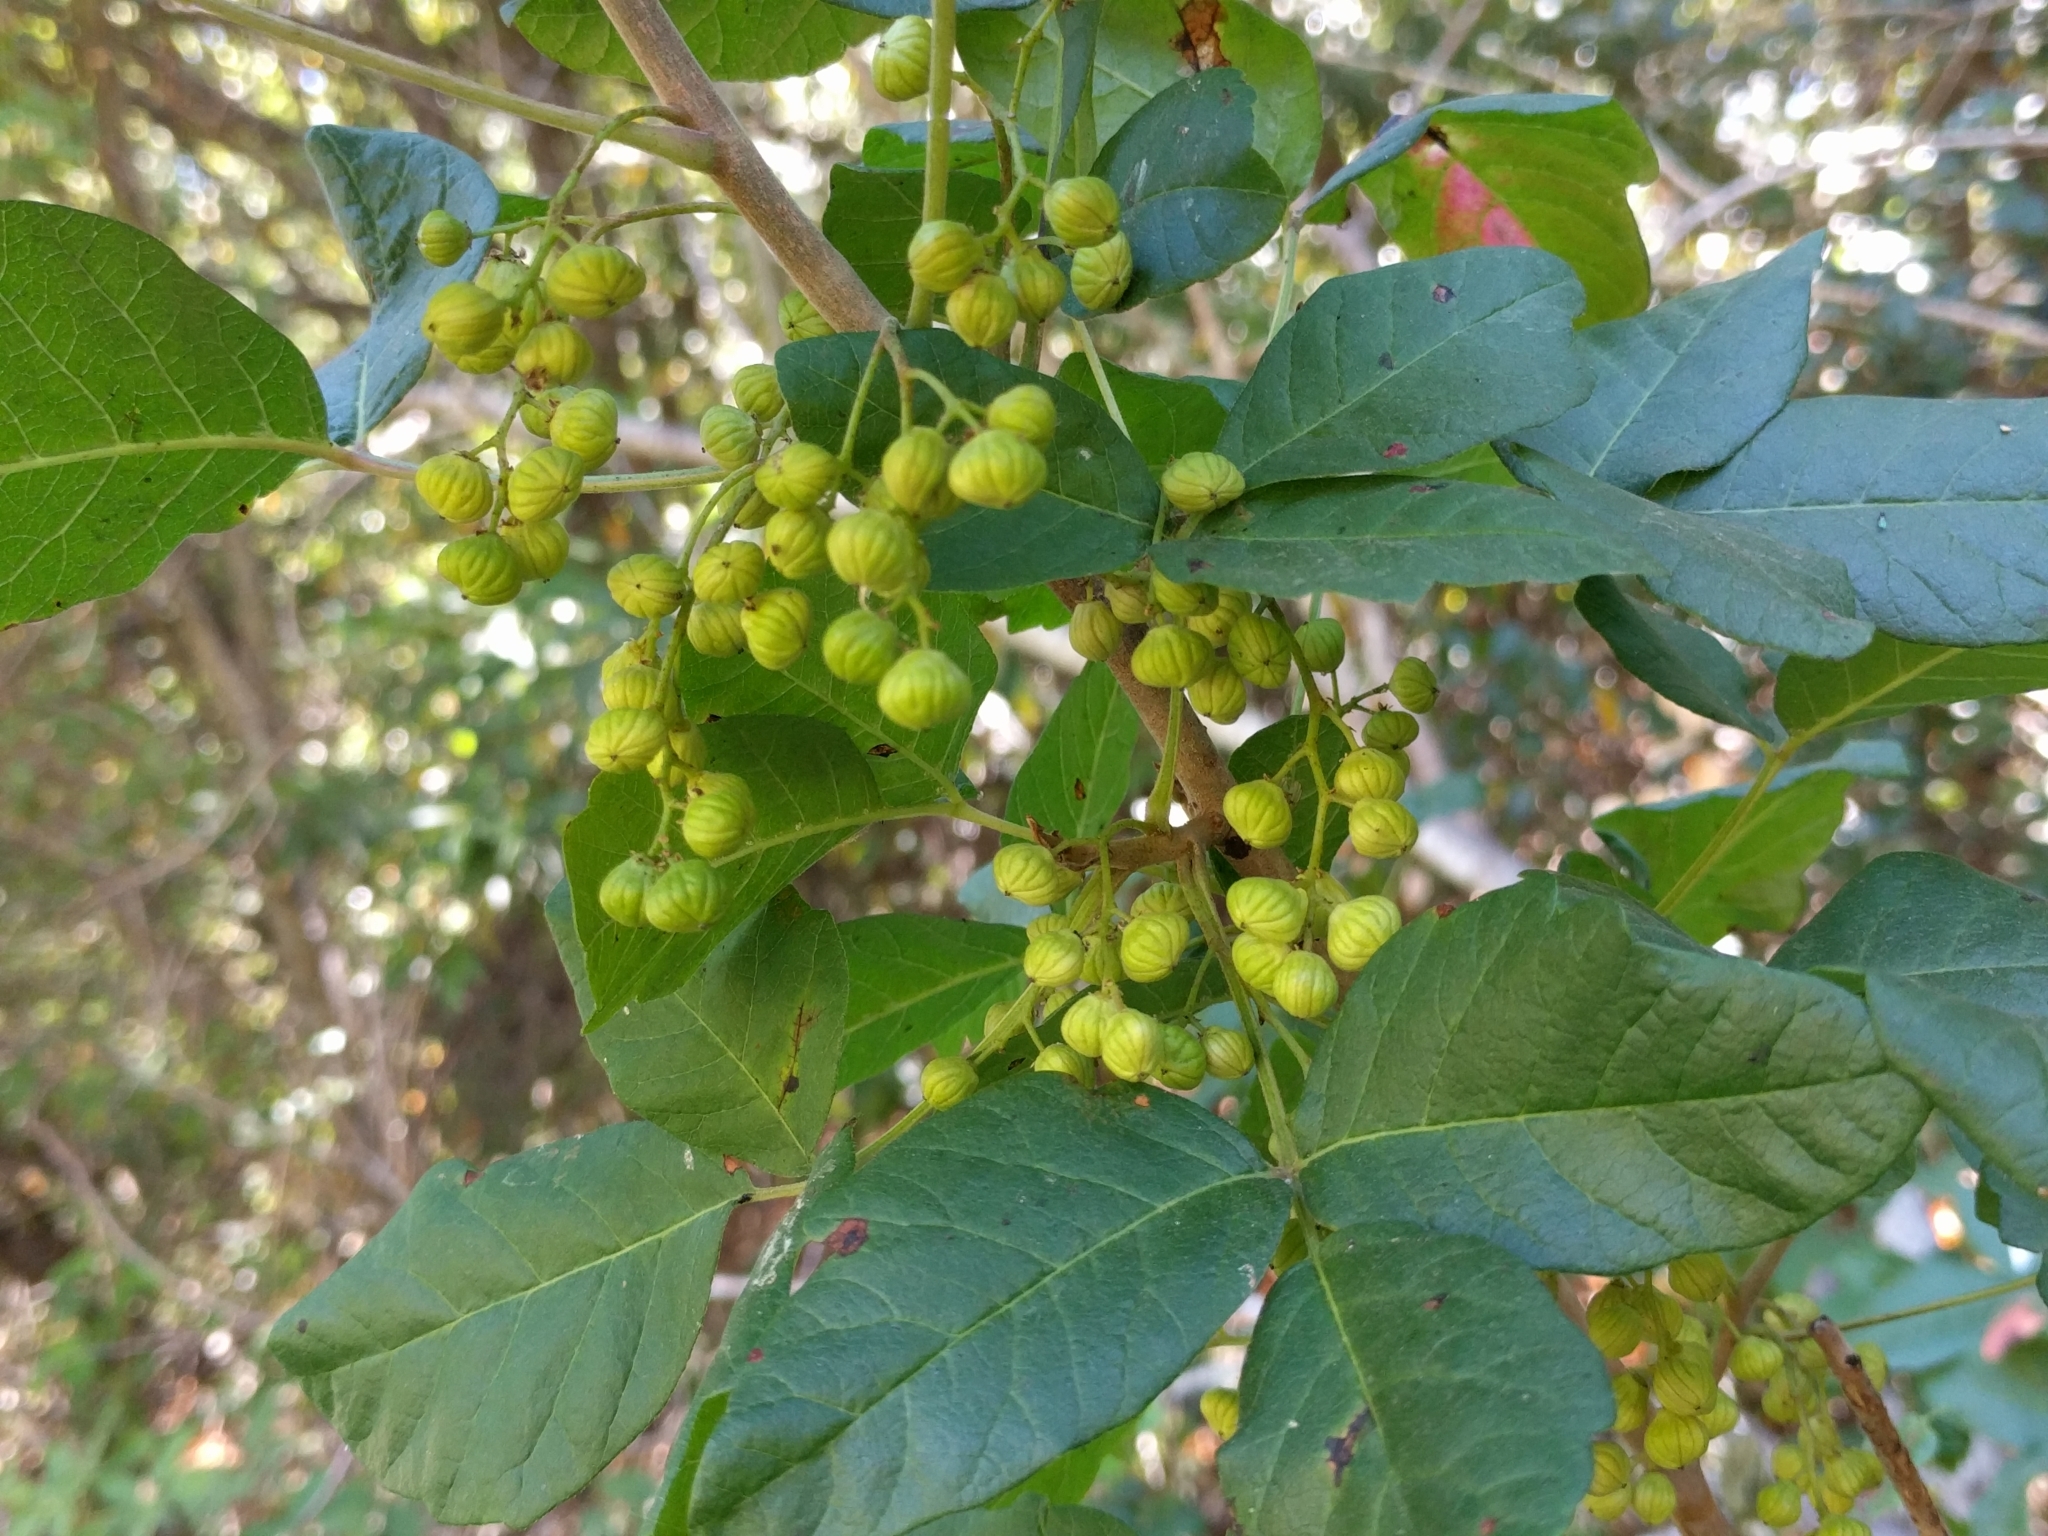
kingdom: Plantae
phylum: Tracheophyta
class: Magnoliopsida
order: Sapindales
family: Anacardiaceae
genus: Toxicodendron
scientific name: Toxicodendron diversilobum
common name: Pacific poison-oak
